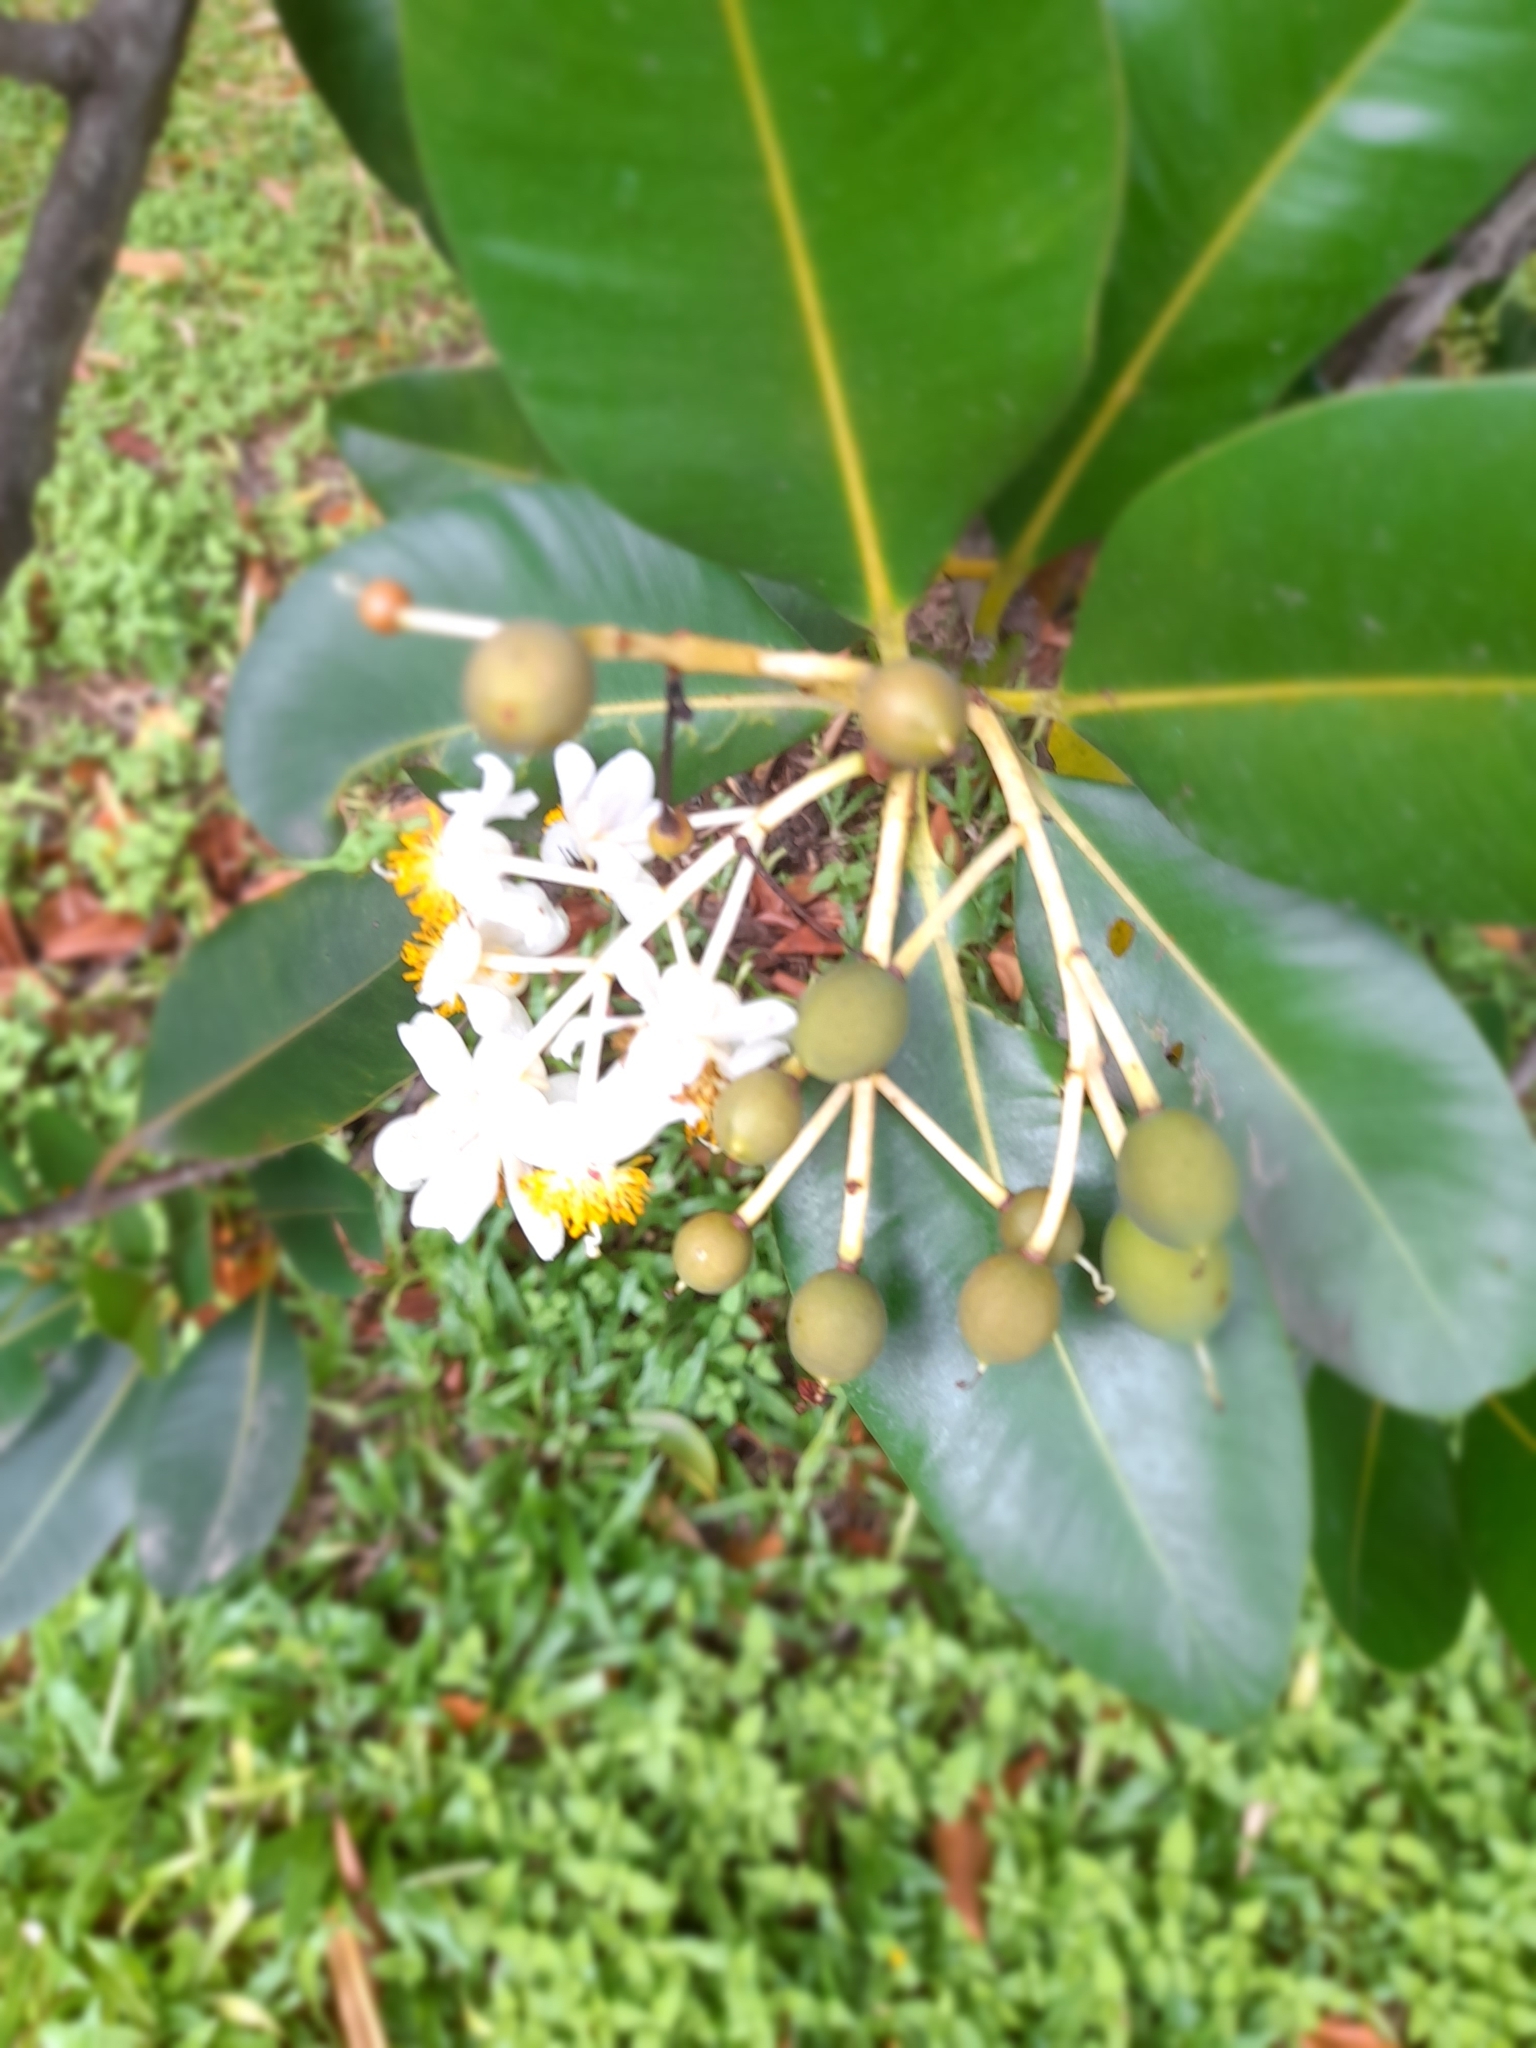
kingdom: Plantae
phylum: Tracheophyta
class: Magnoliopsida
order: Malpighiales
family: Calophyllaceae
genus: Calophyllum
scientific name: Calophyllum inophyllum
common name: Alexandrian laurel
